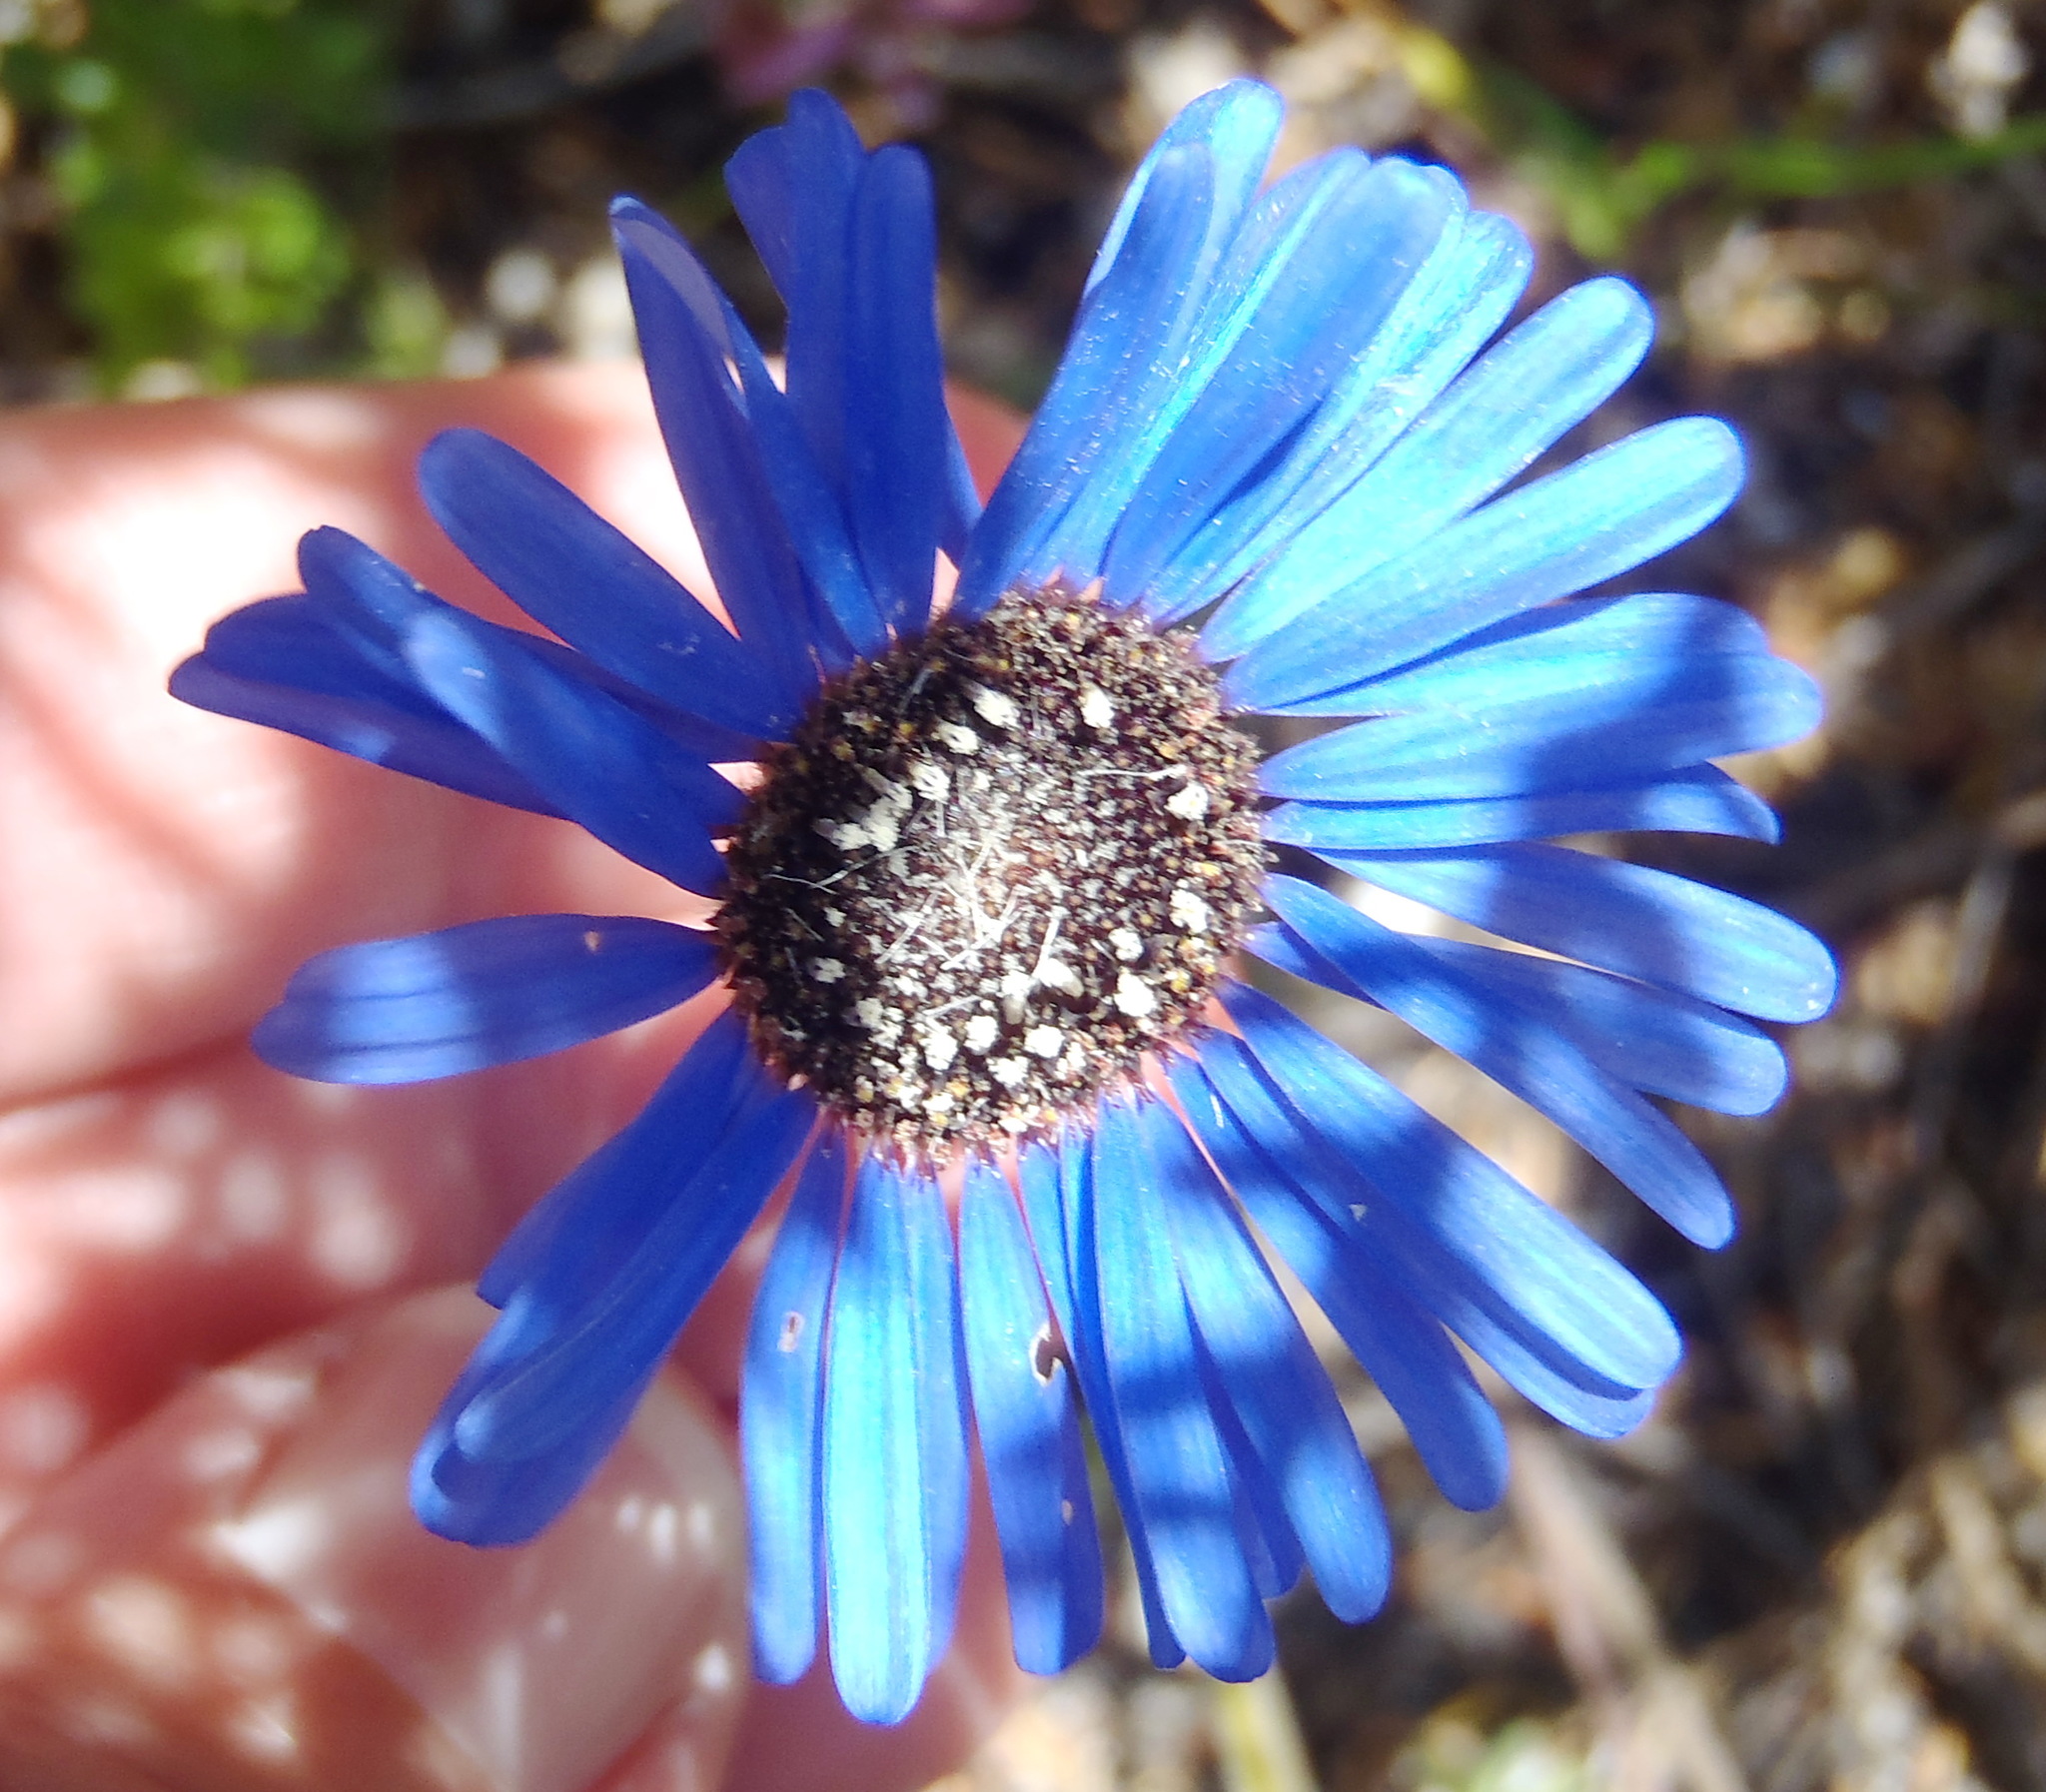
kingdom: Plantae
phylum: Tracheophyta
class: Magnoliopsida
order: Asterales
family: Asteraceae
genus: Felicia
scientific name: Felicia amoena
